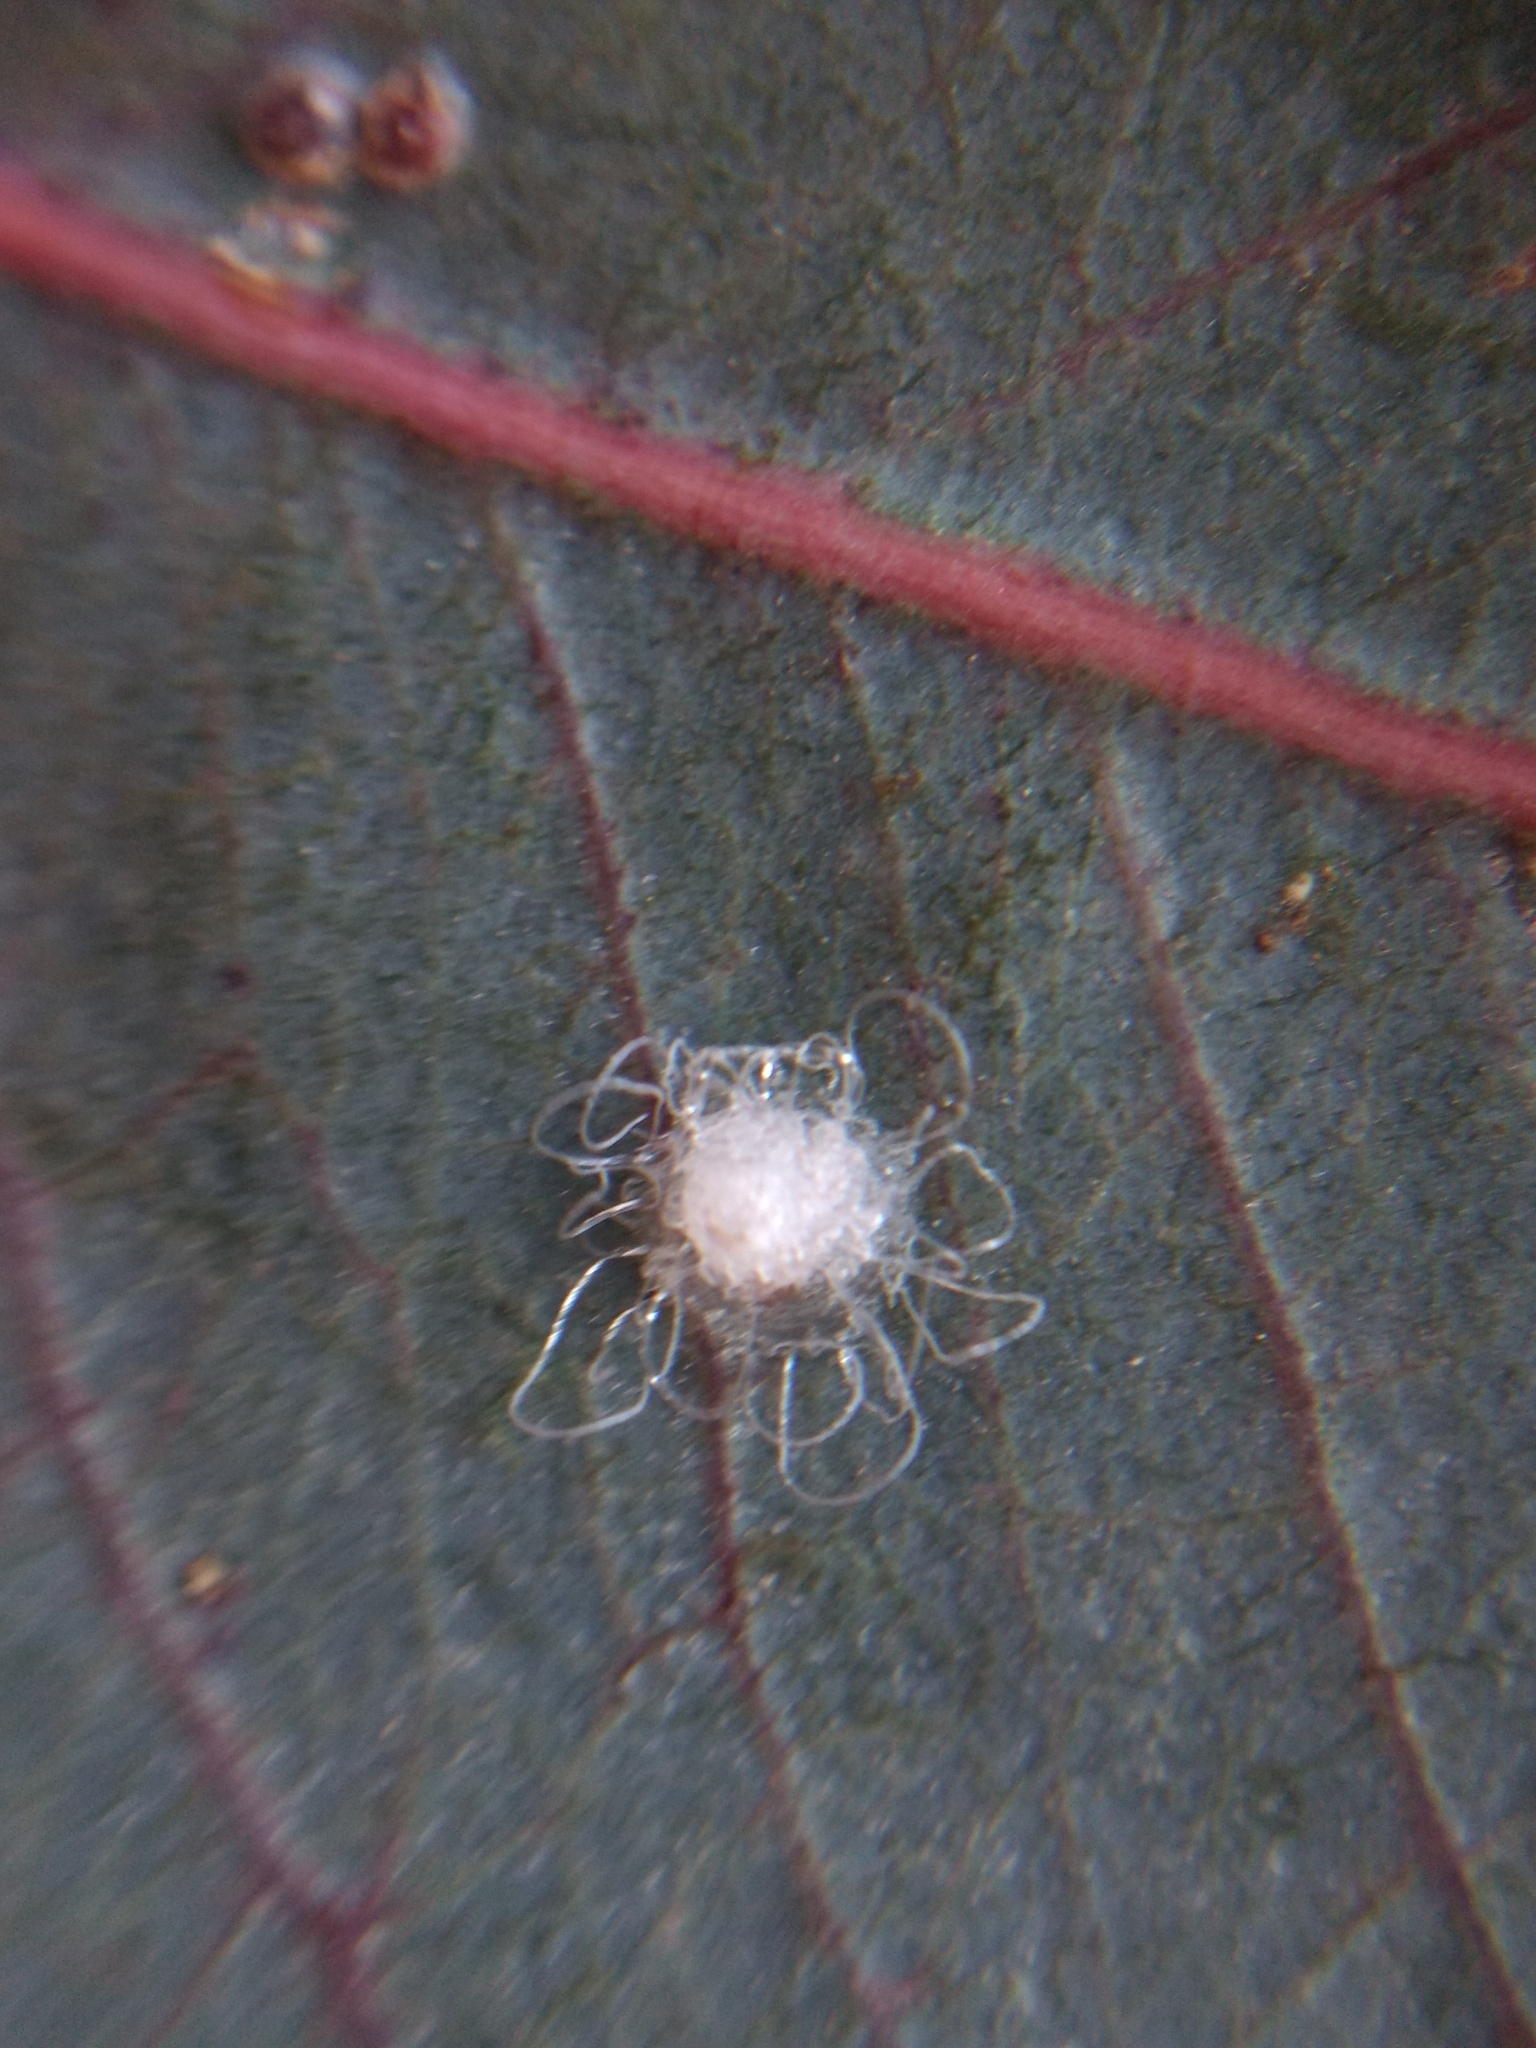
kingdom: Animalia
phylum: Arthropoda
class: Insecta
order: Hemiptera
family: Aphalaridae
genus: Glycaspis
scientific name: Glycaspis brimblecombei
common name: Red gum lerp psyllid
